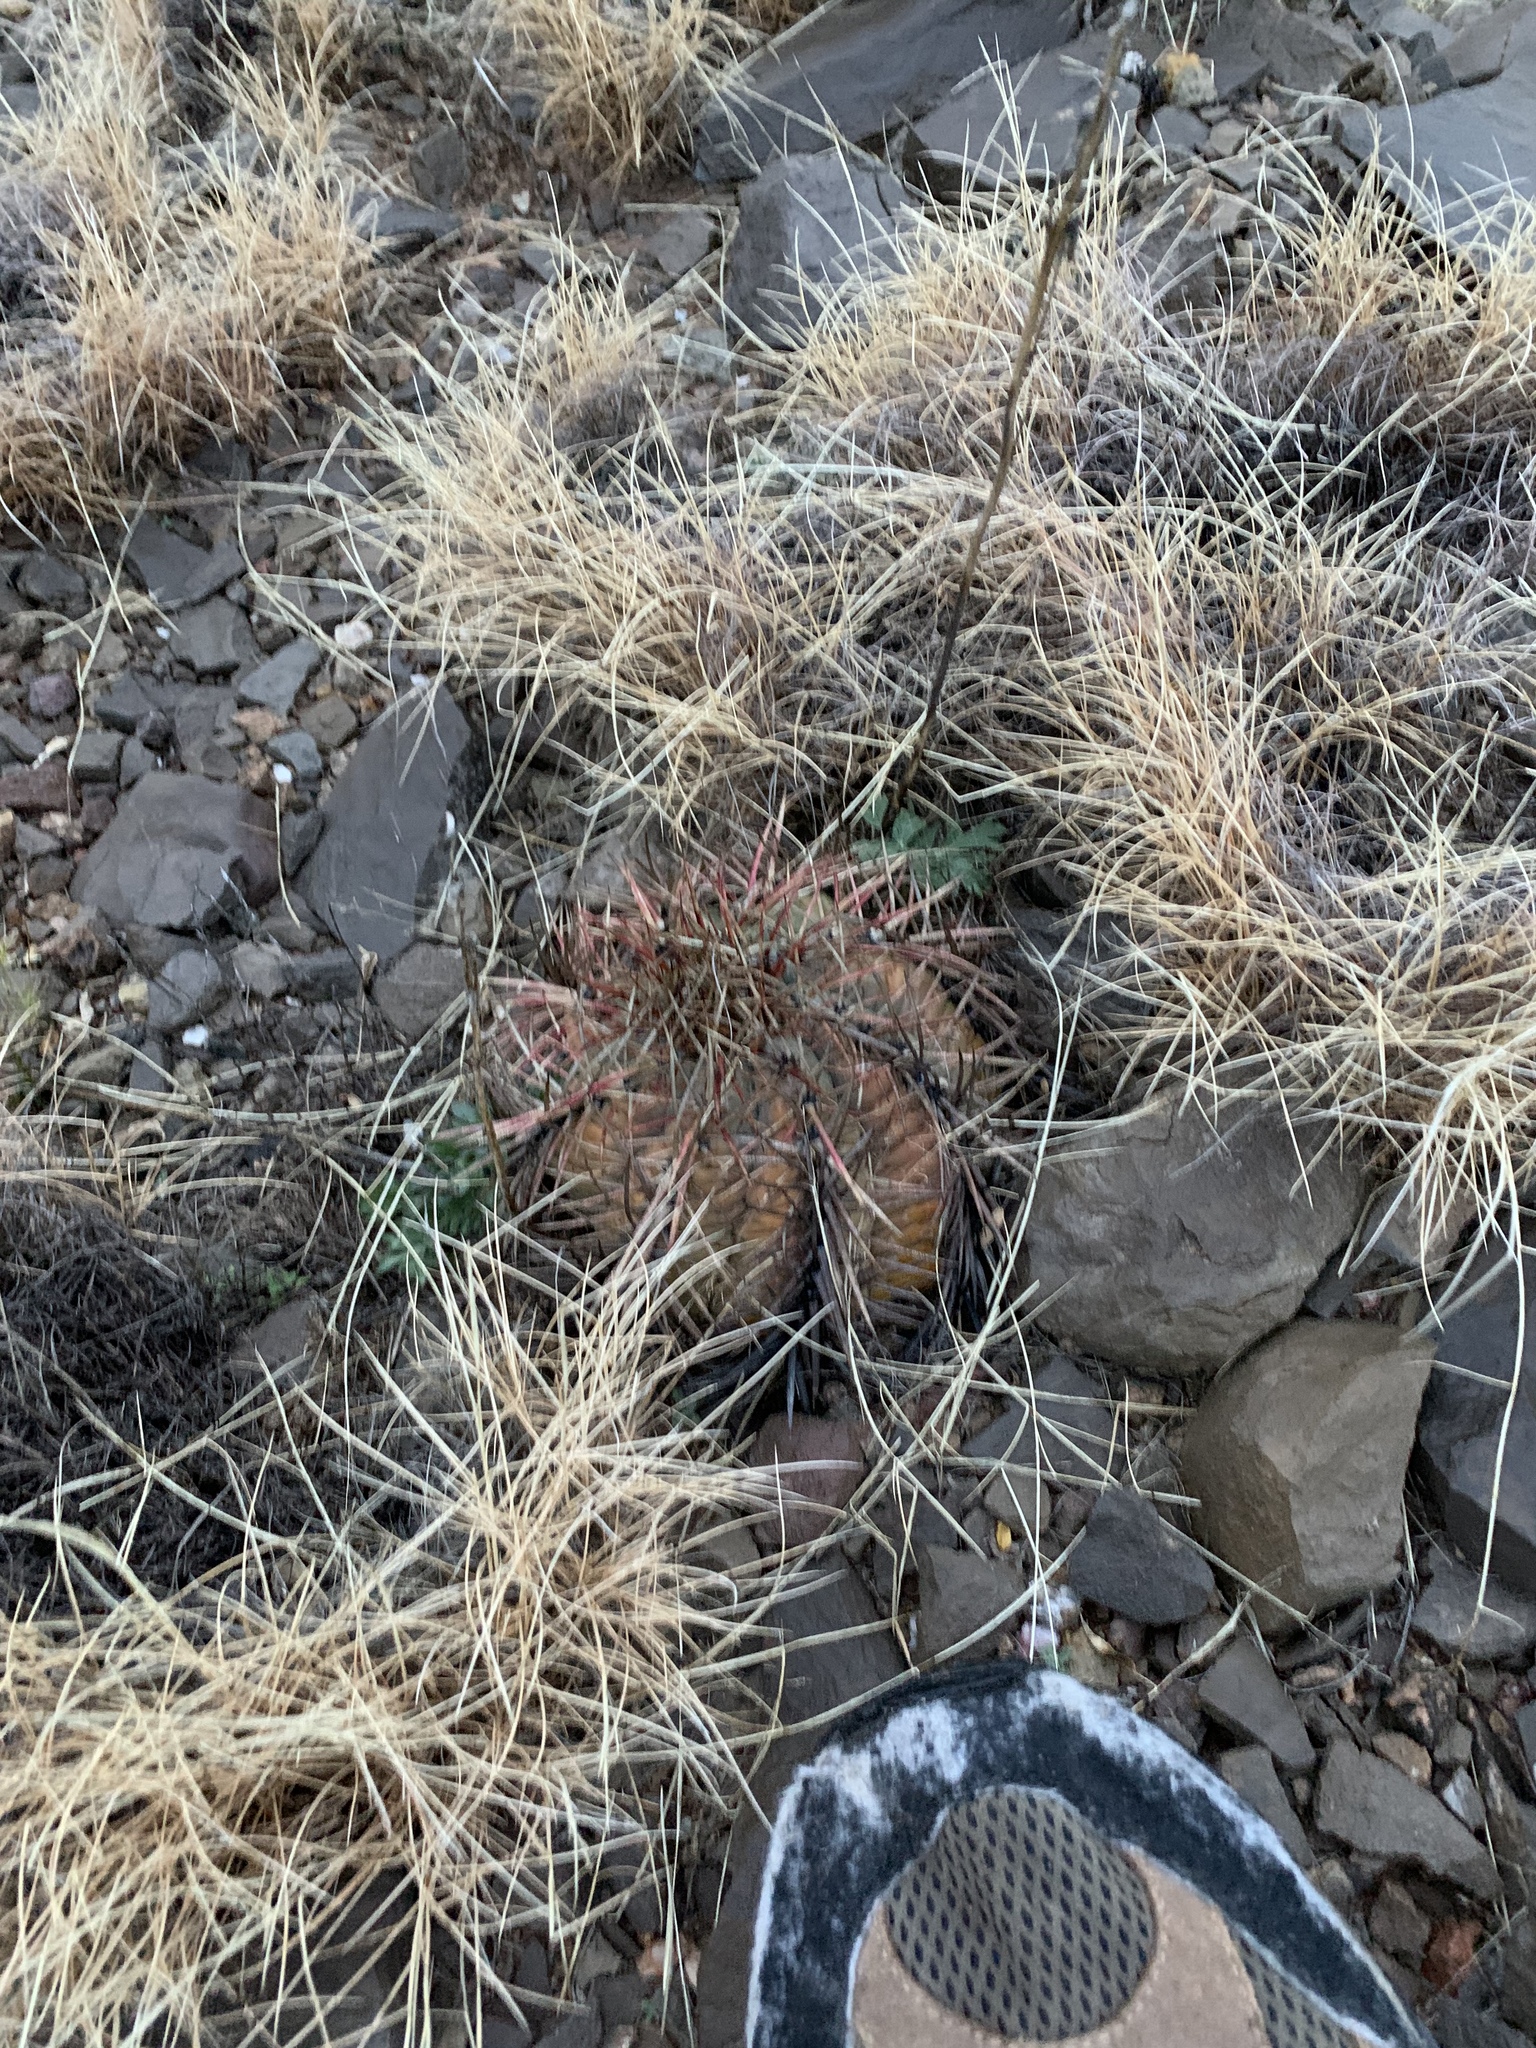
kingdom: Plantae
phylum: Tracheophyta
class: Magnoliopsida
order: Caryophyllales
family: Cactaceae
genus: Echinocactus
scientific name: Echinocactus horizonthalonius
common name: Devilshead
